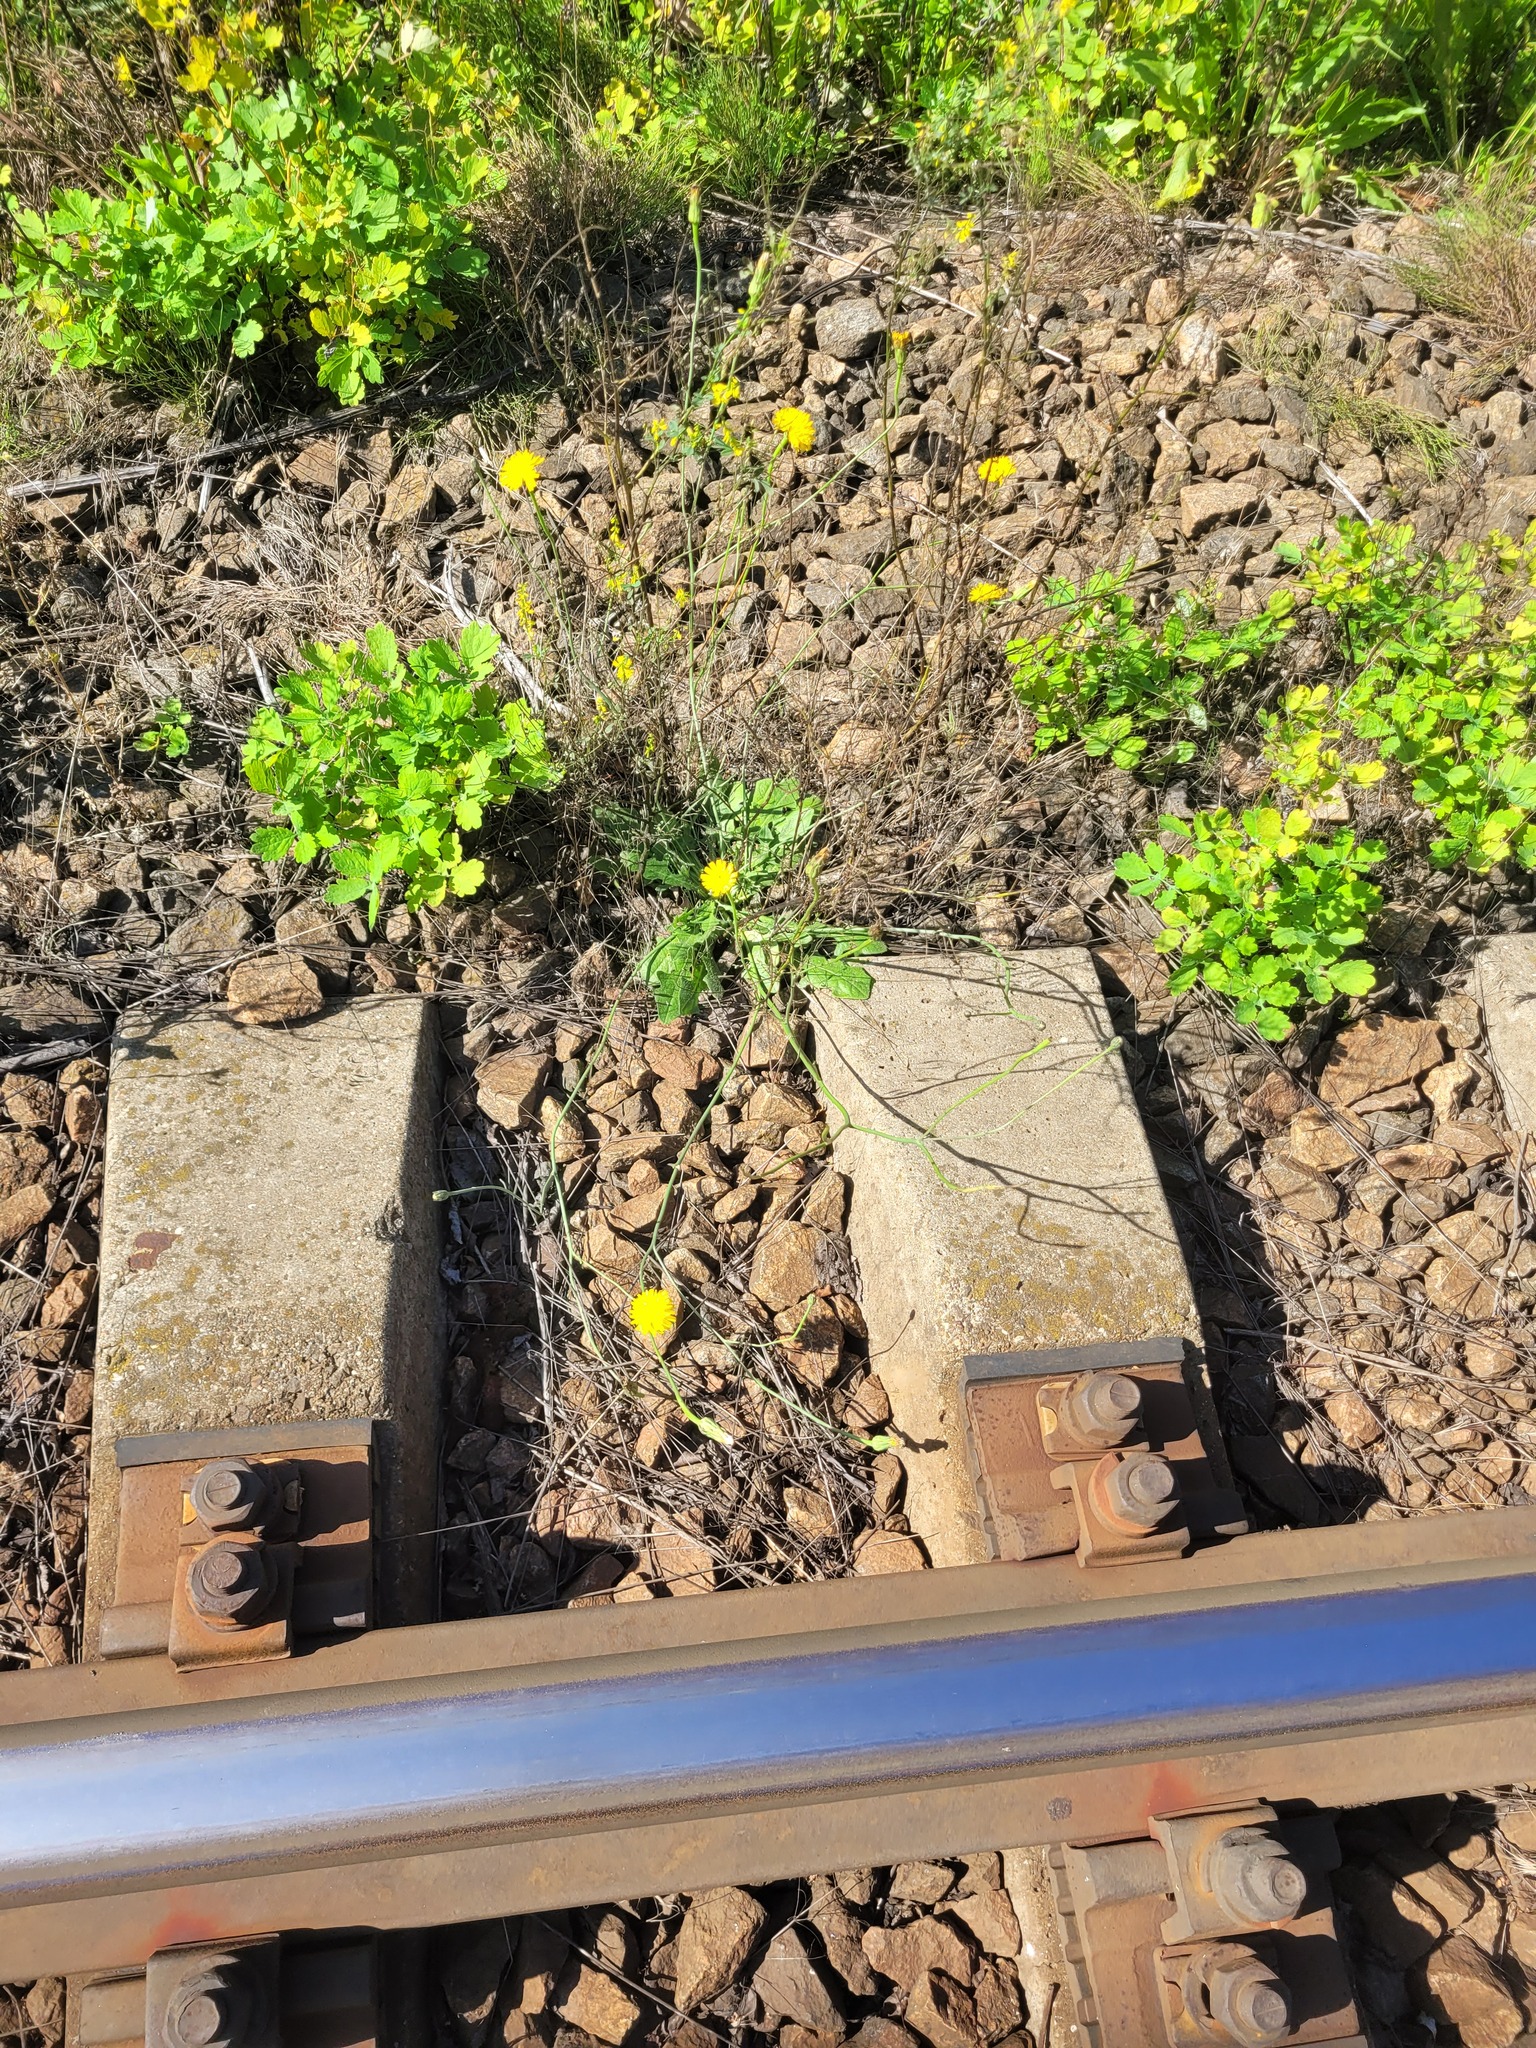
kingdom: Plantae
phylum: Tracheophyta
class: Magnoliopsida
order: Asterales
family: Asteraceae
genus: Hypochaeris
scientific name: Hypochaeris radicata
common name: Flatweed
